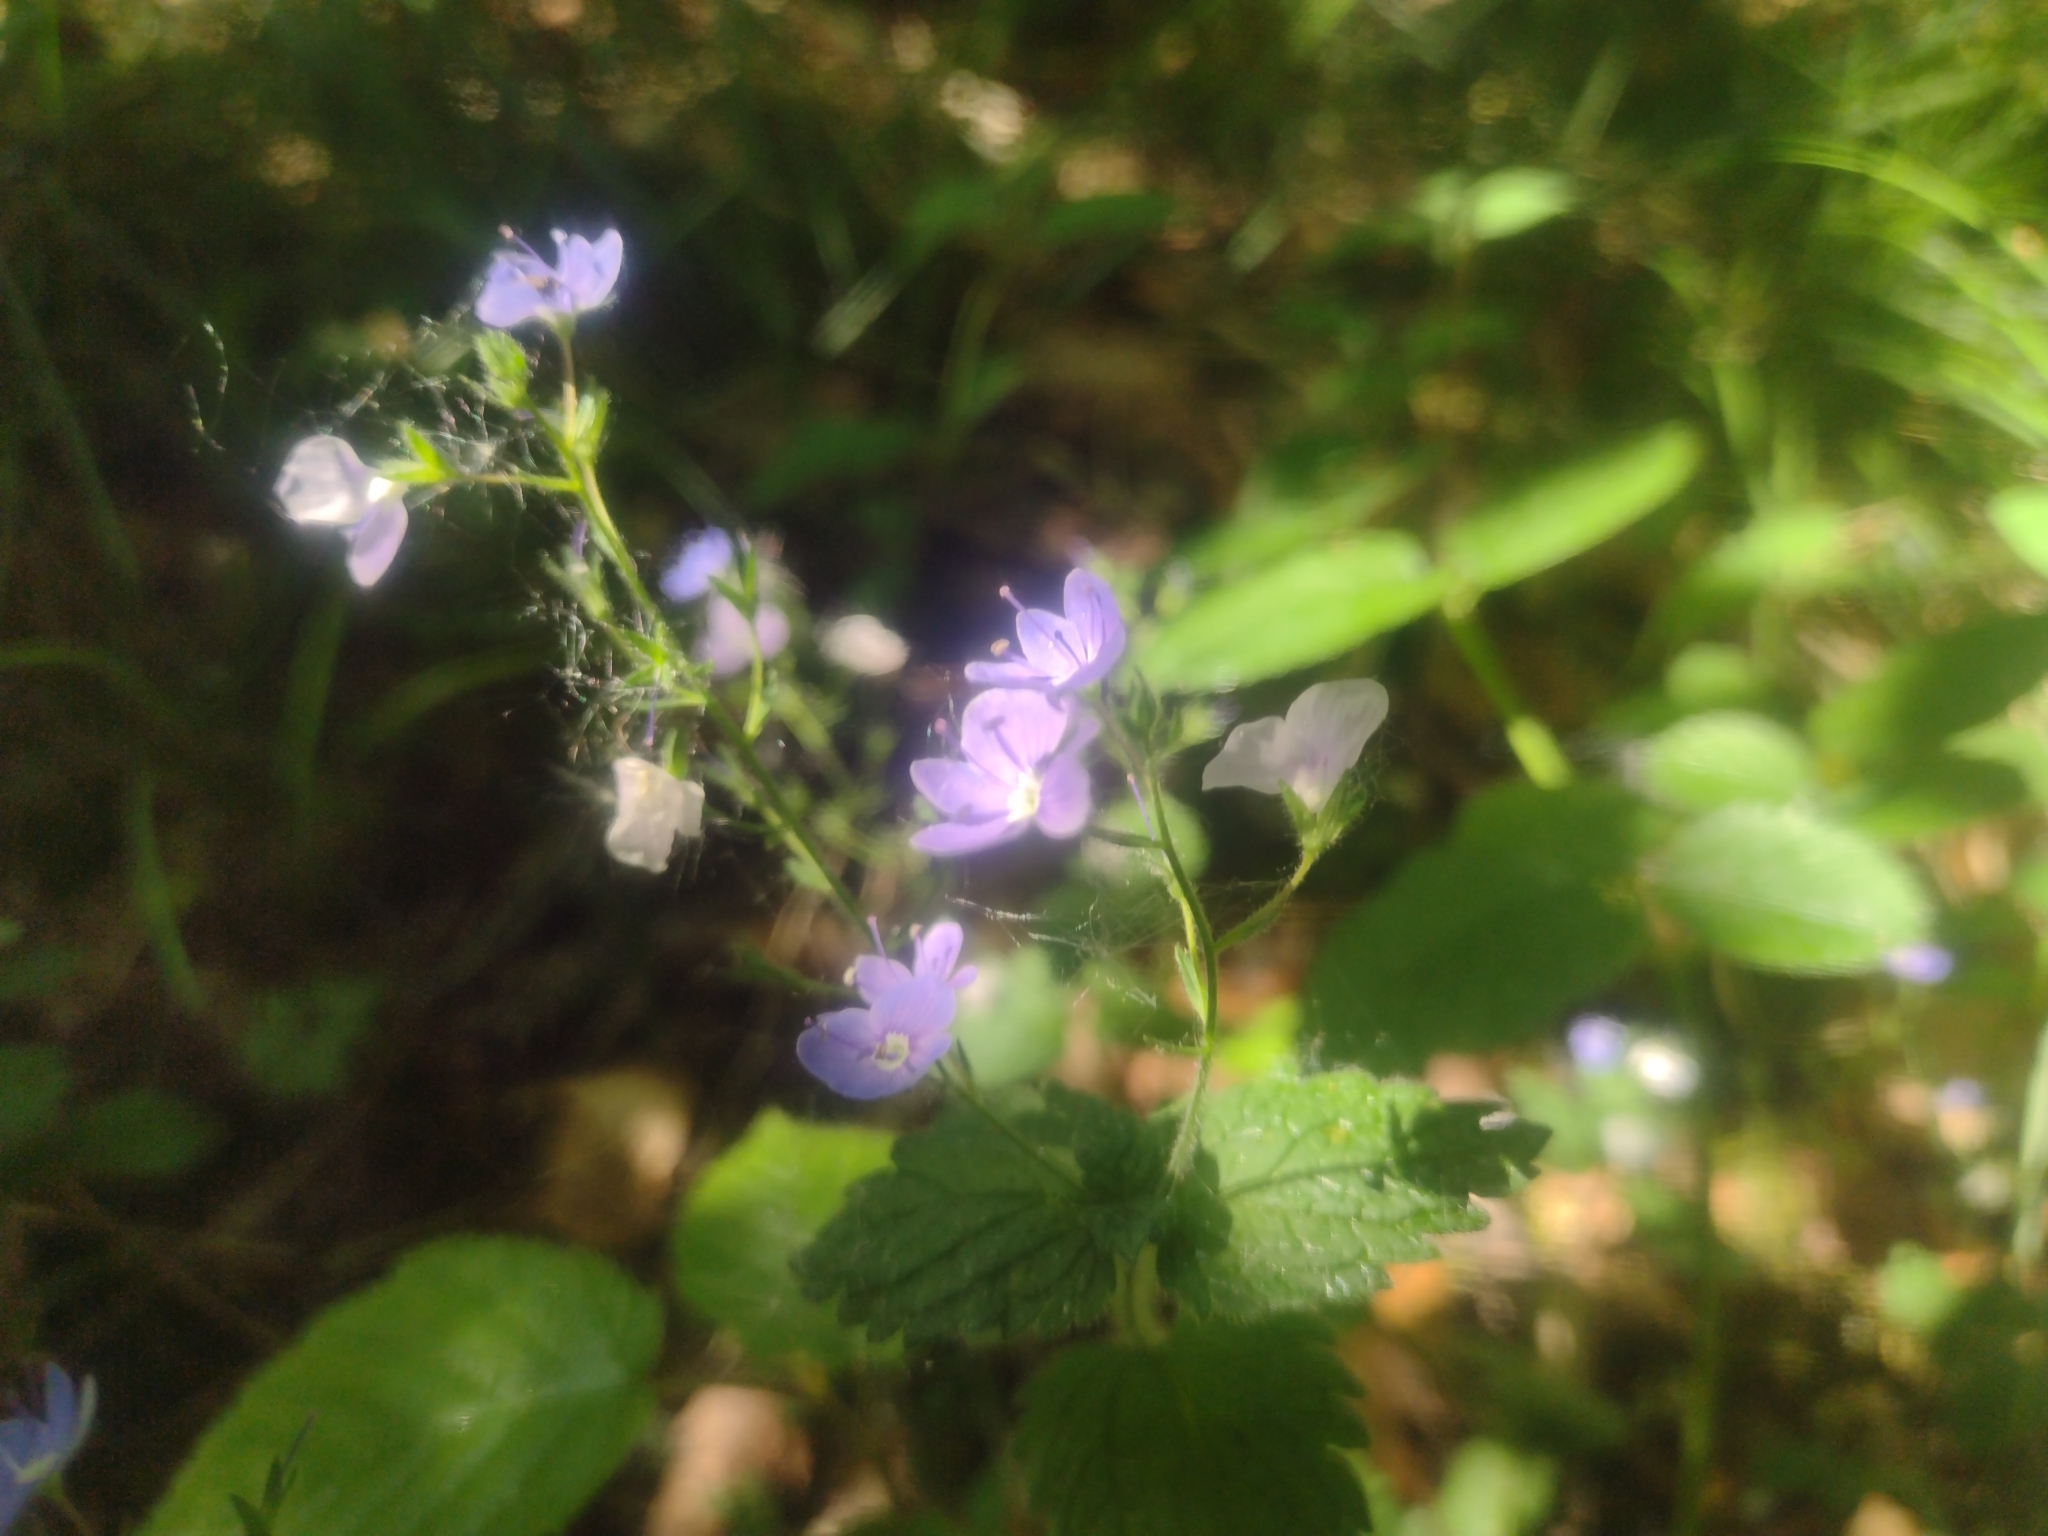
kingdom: Plantae
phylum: Tracheophyta
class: Magnoliopsida
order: Lamiales
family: Plantaginaceae
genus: Veronica
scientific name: Veronica chamaedrys
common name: Germander speedwell
